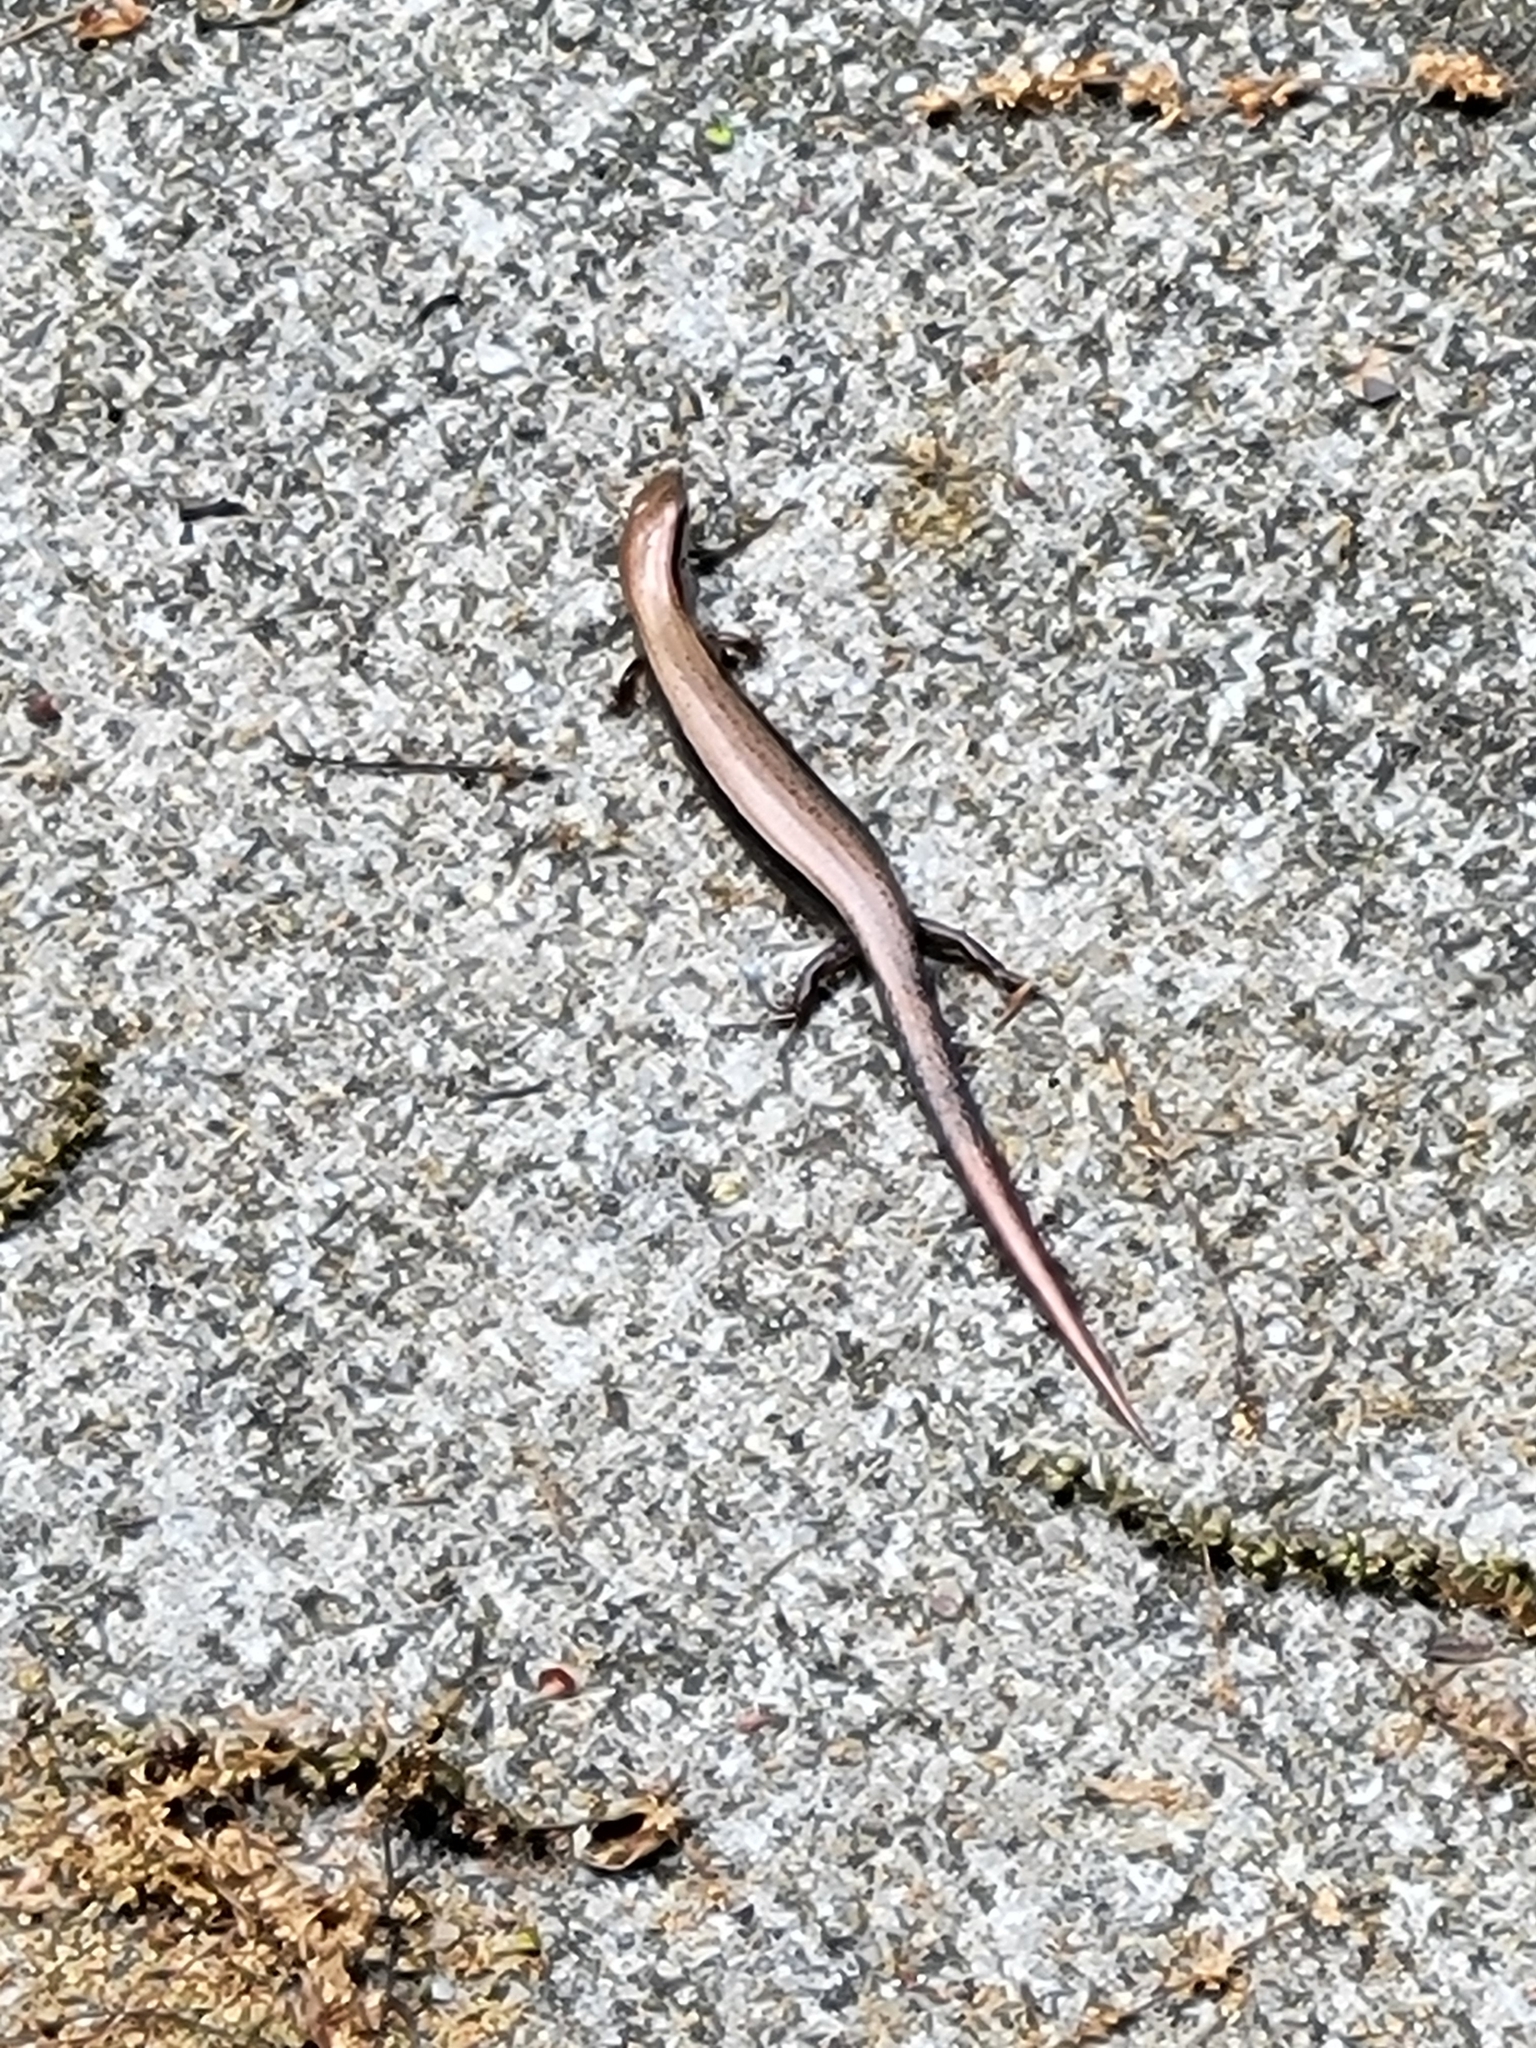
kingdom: Animalia
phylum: Chordata
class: Squamata
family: Scincidae
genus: Scincella
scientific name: Scincella lateralis
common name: Ground skink
